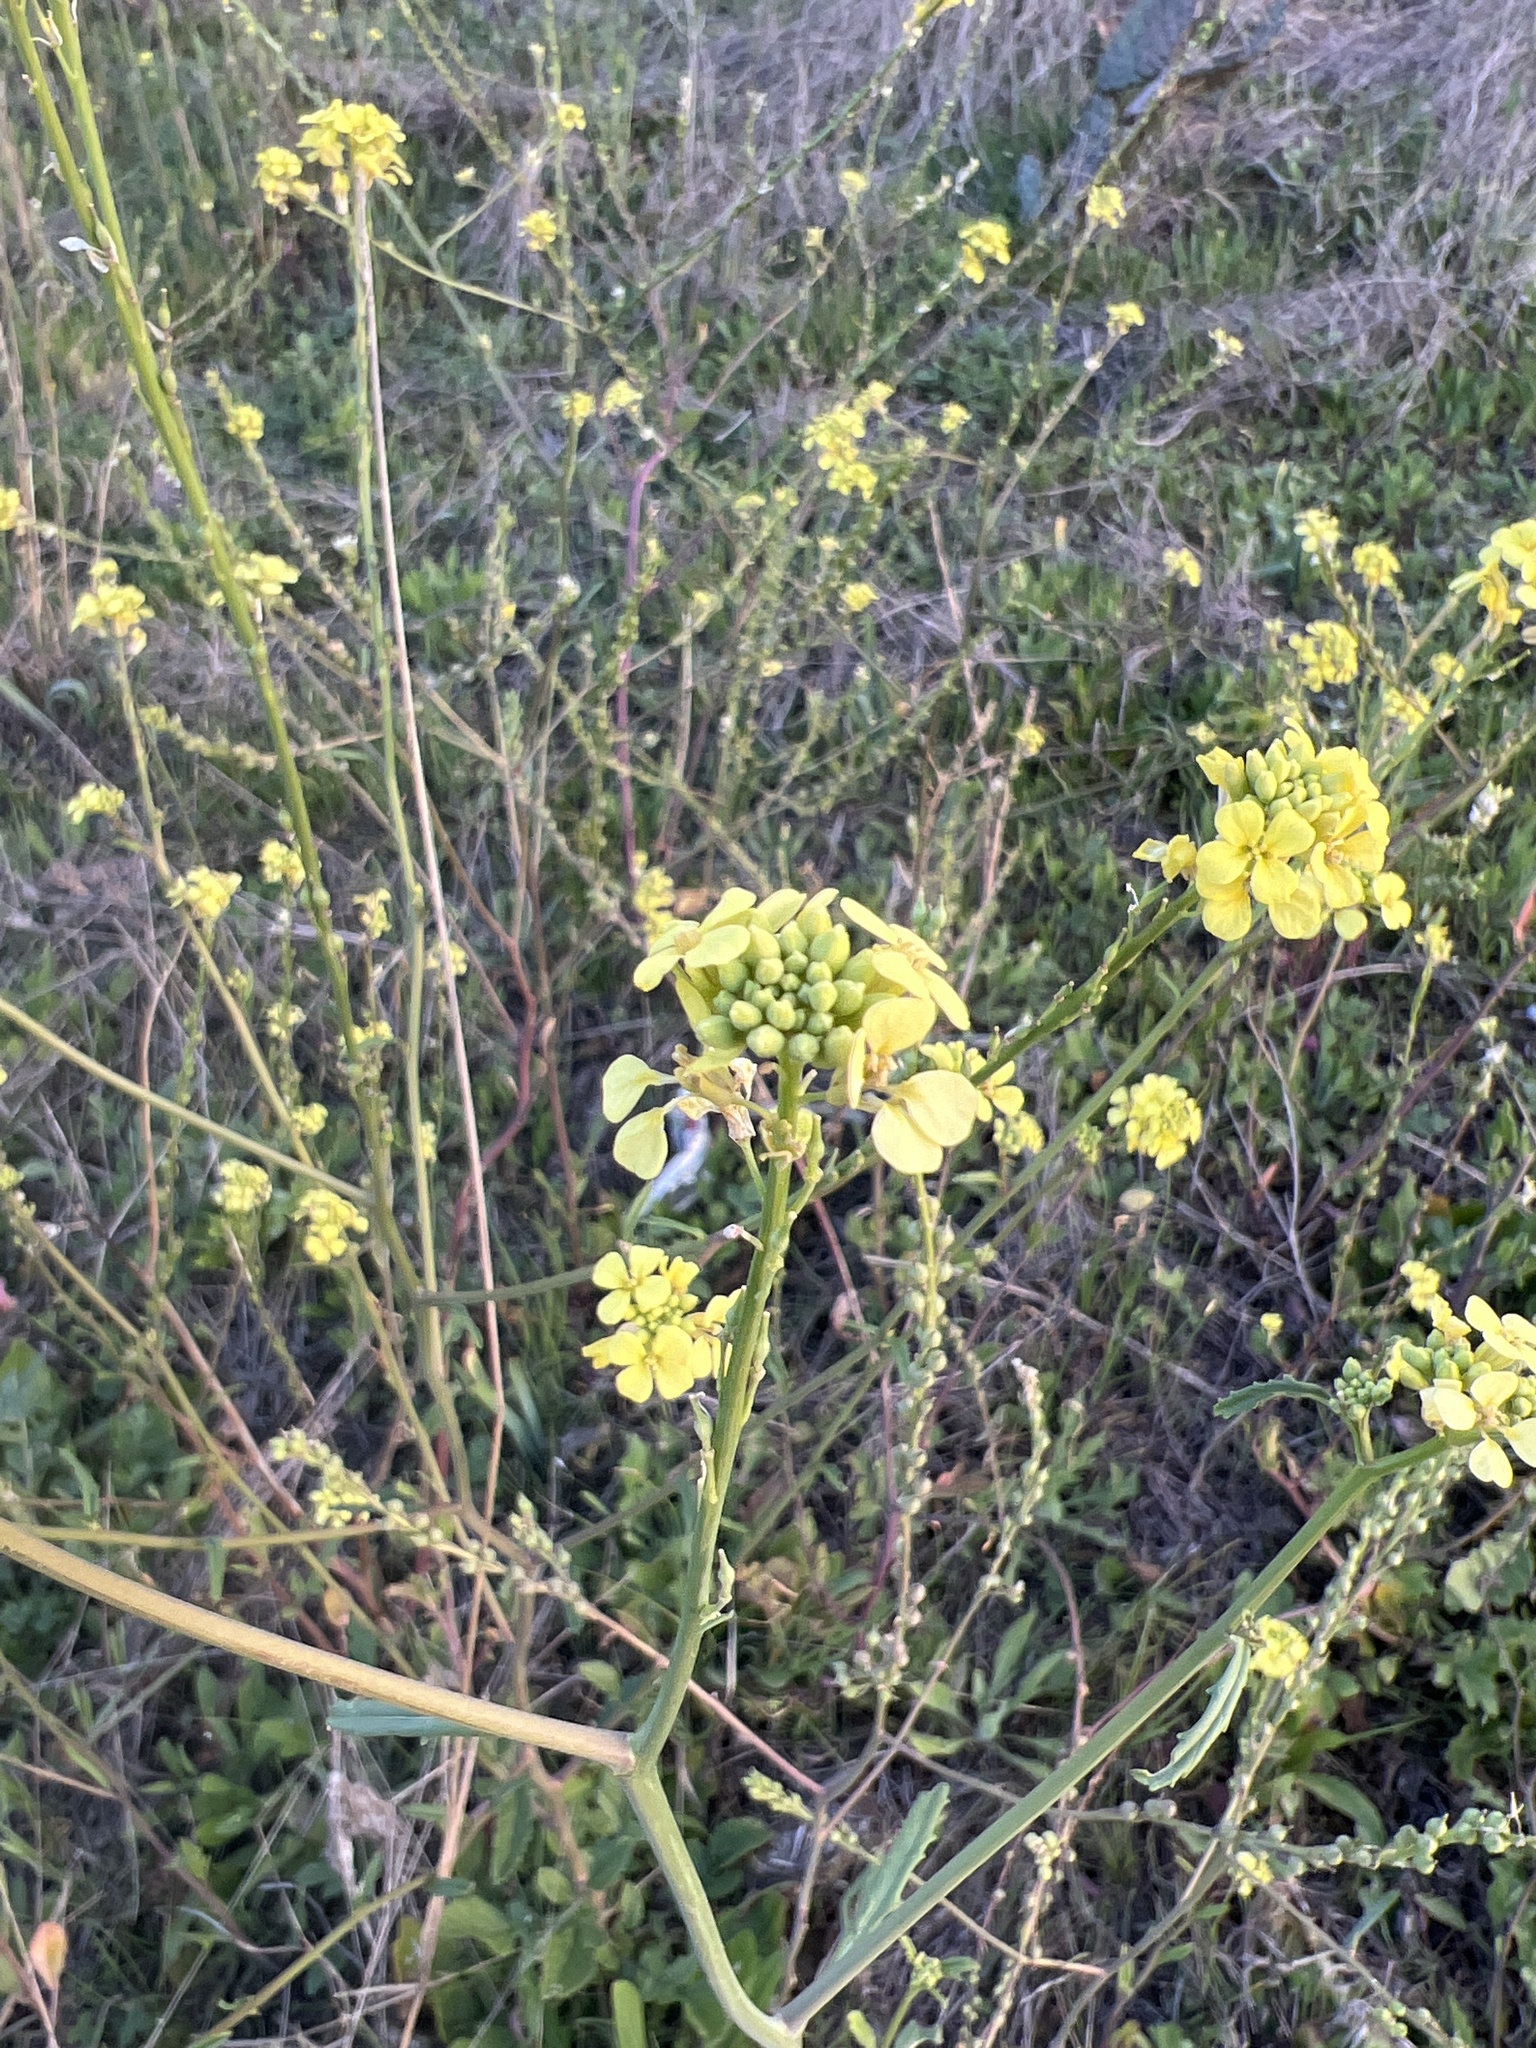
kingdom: Plantae
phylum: Tracheophyta
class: Magnoliopsida
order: Brassicales
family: Brassicaceae
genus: Rapistrum
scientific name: Rapistrum rugosum
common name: Annual bastardcabbage
